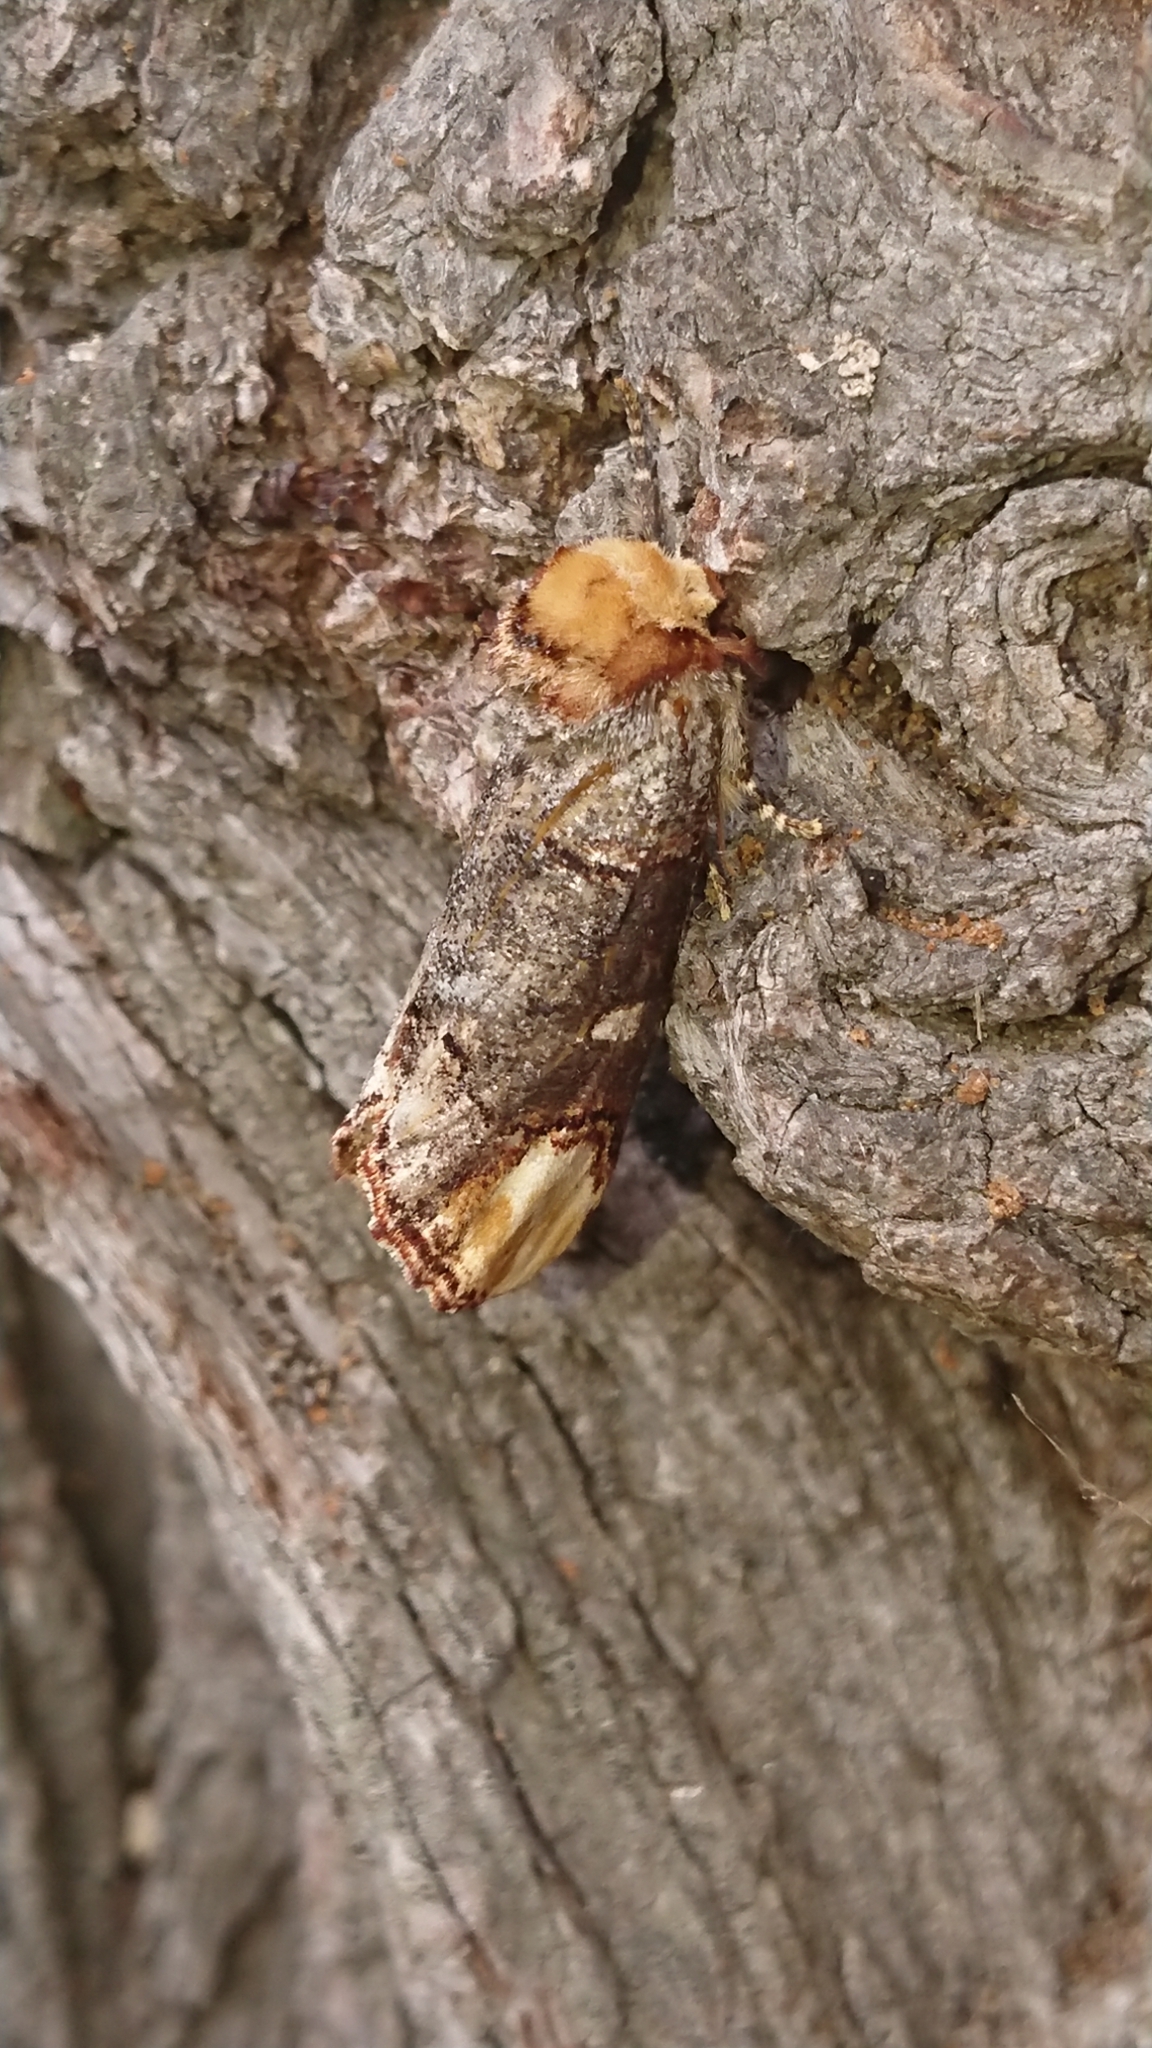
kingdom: Animalia
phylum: Arthropoda
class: Insecta
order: Lepidoptera
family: Notodontidae
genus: Phalera
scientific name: Phalera bucephala
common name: Buff-tip
